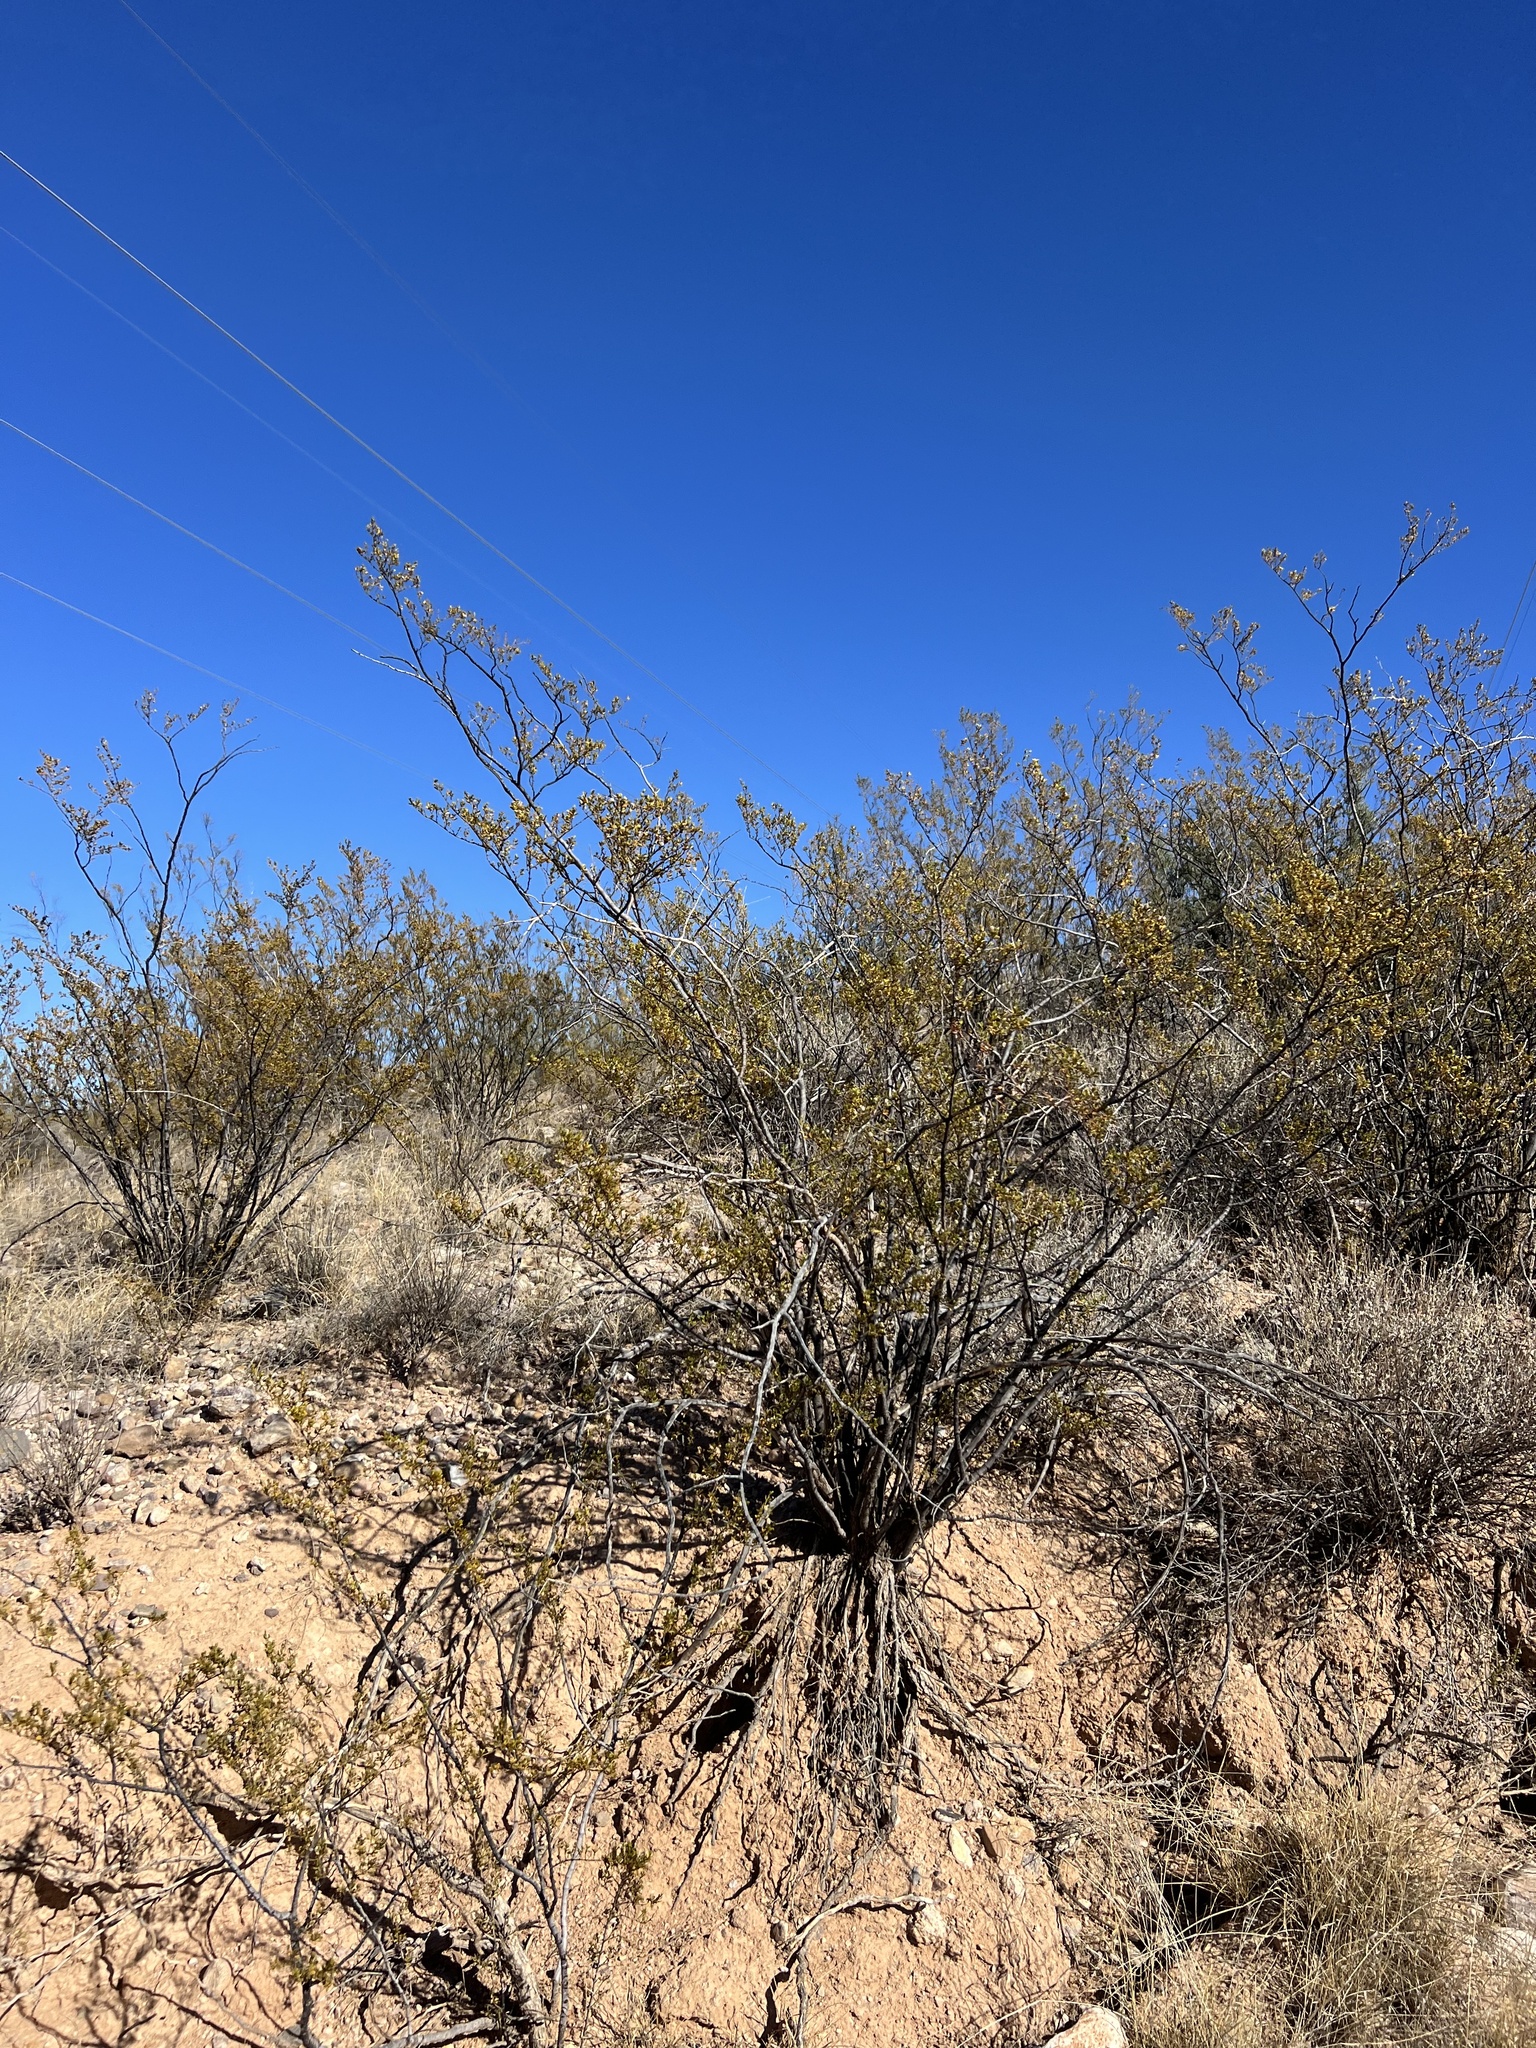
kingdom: Plantae
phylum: Tracheophyta
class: Magnoliopsida
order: Zygophyllales
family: Zygophyllaceae
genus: Larrea
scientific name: Larrea tridentata
